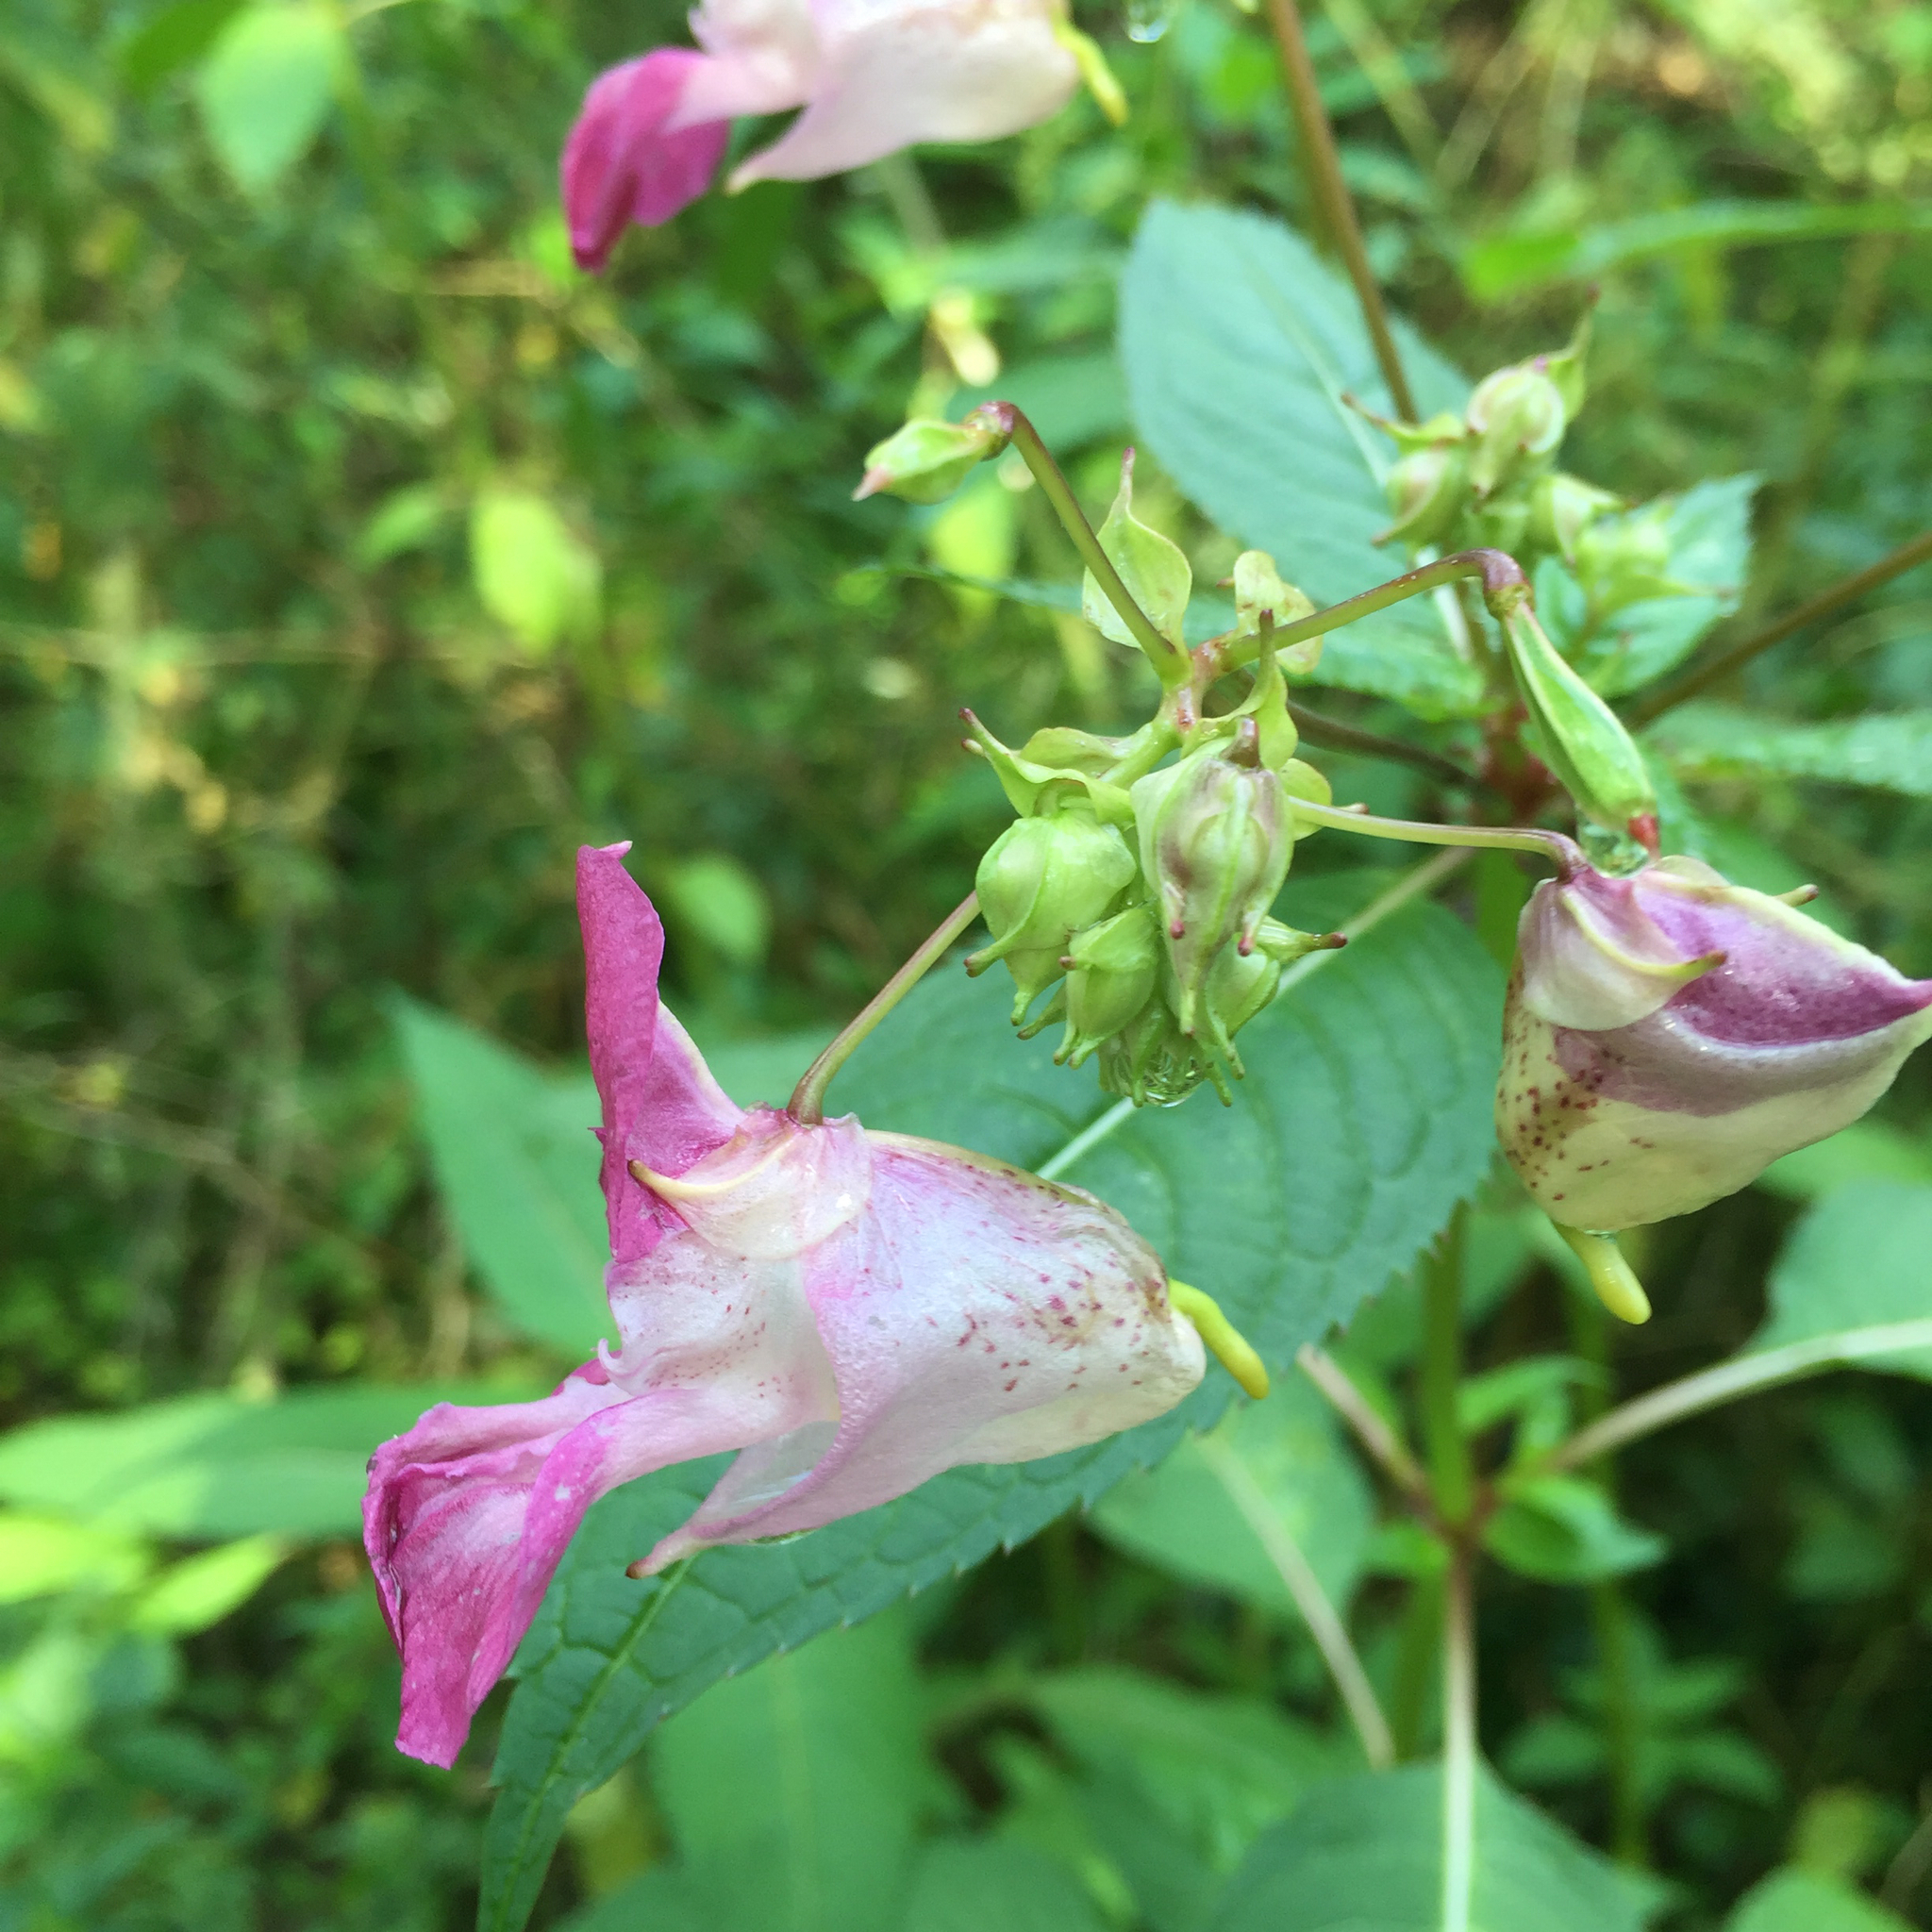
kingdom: Plantae
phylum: Tracheophyta
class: Magnoliopsida
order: Ericales
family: Balsaminaceae
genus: Impatiens
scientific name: Impatiens glandulifera
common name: Himalayan balsam
